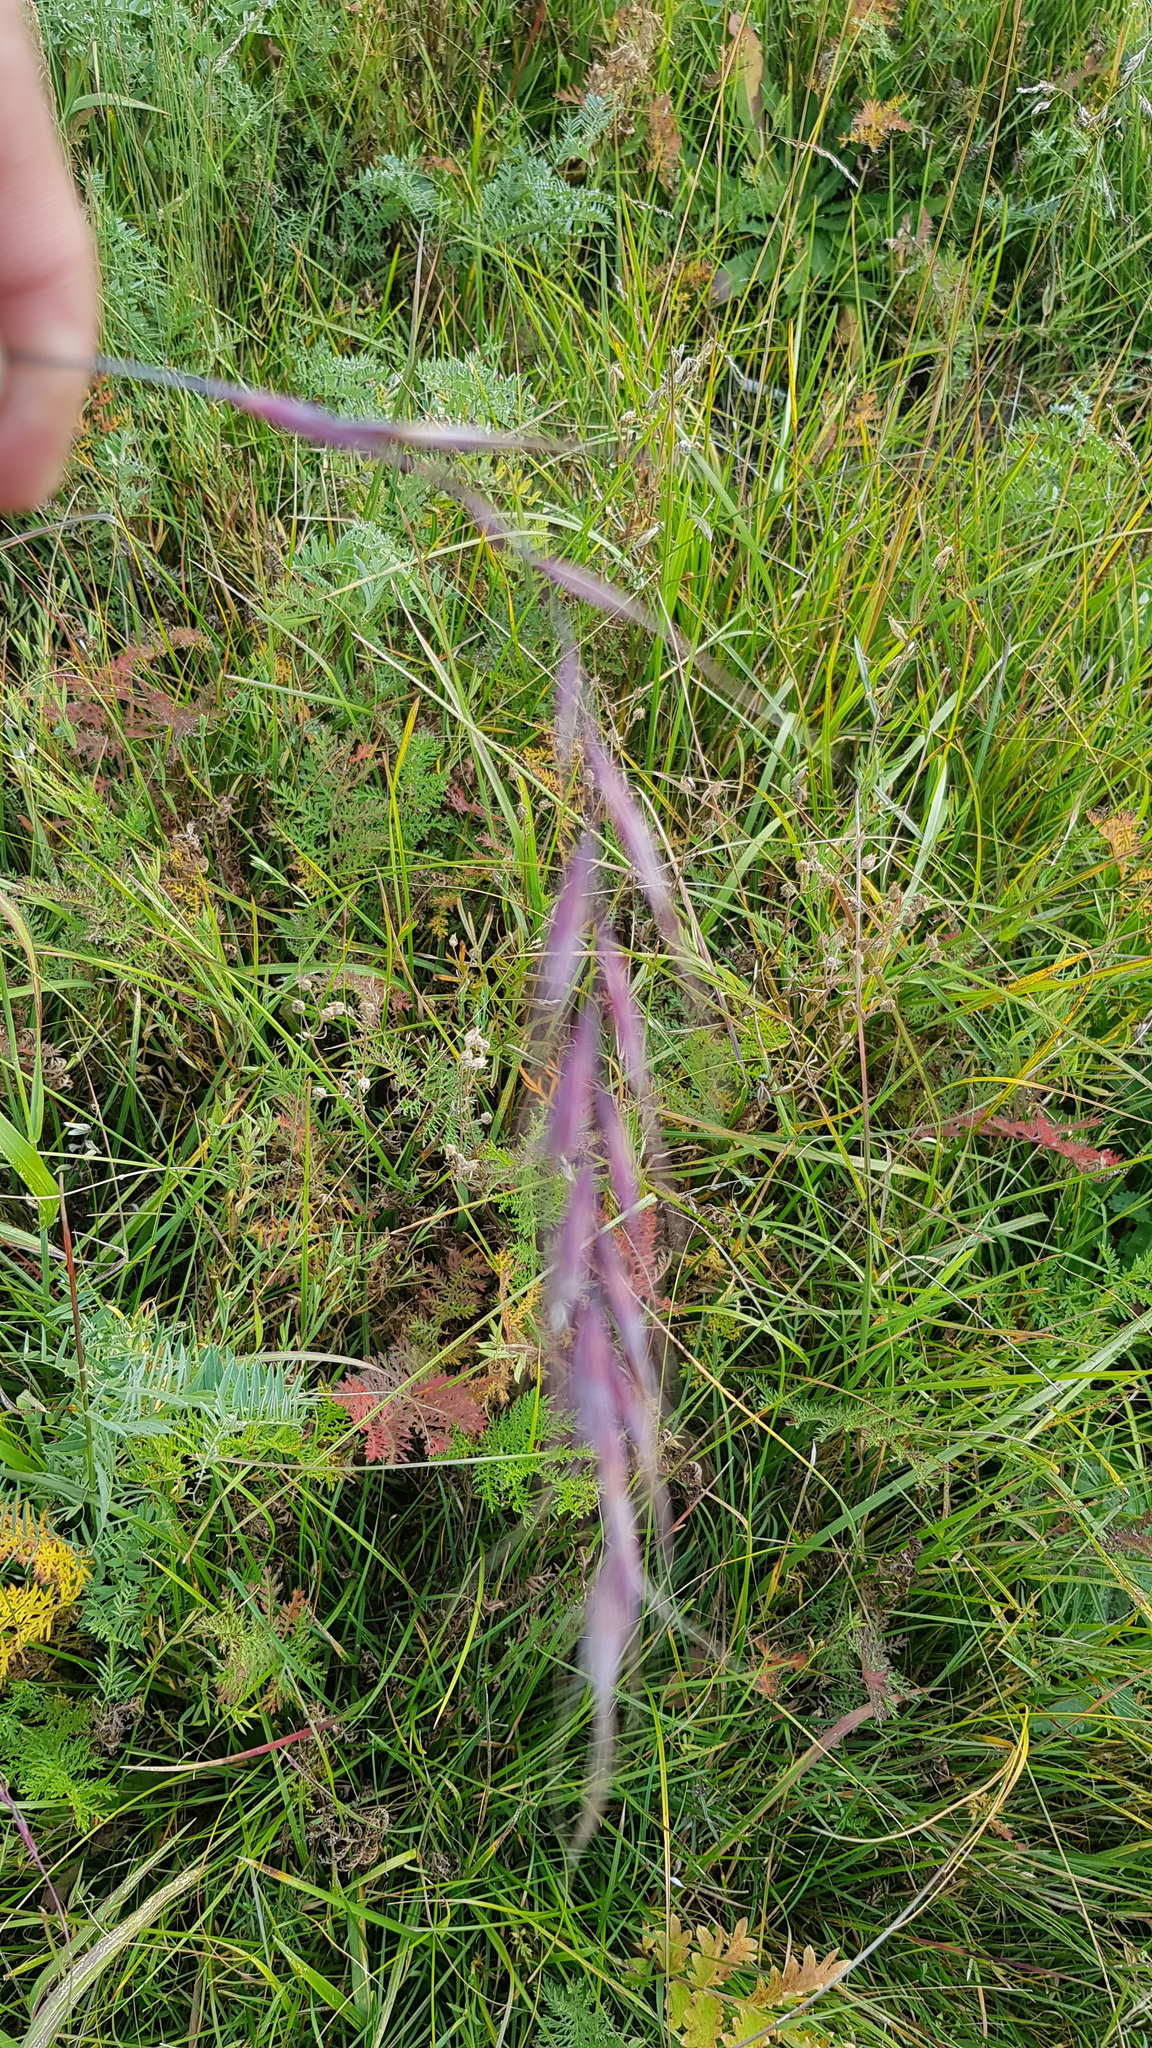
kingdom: Plantae
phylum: Tracheophyta
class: Liliopsida
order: Poales
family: Poaceae
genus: Elymus
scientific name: Elymus sibiricus
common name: Siberian wildrye
